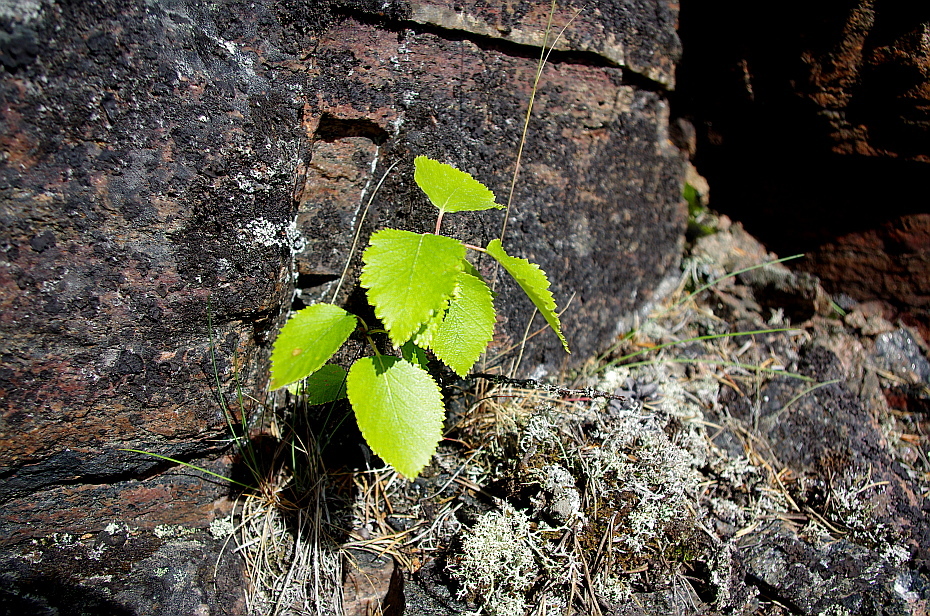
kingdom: Plantae
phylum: Tracheophyta
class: Magnoliopsida
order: Fagales
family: Betulaceae
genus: Betula
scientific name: Betula pendula
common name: Silver birch
